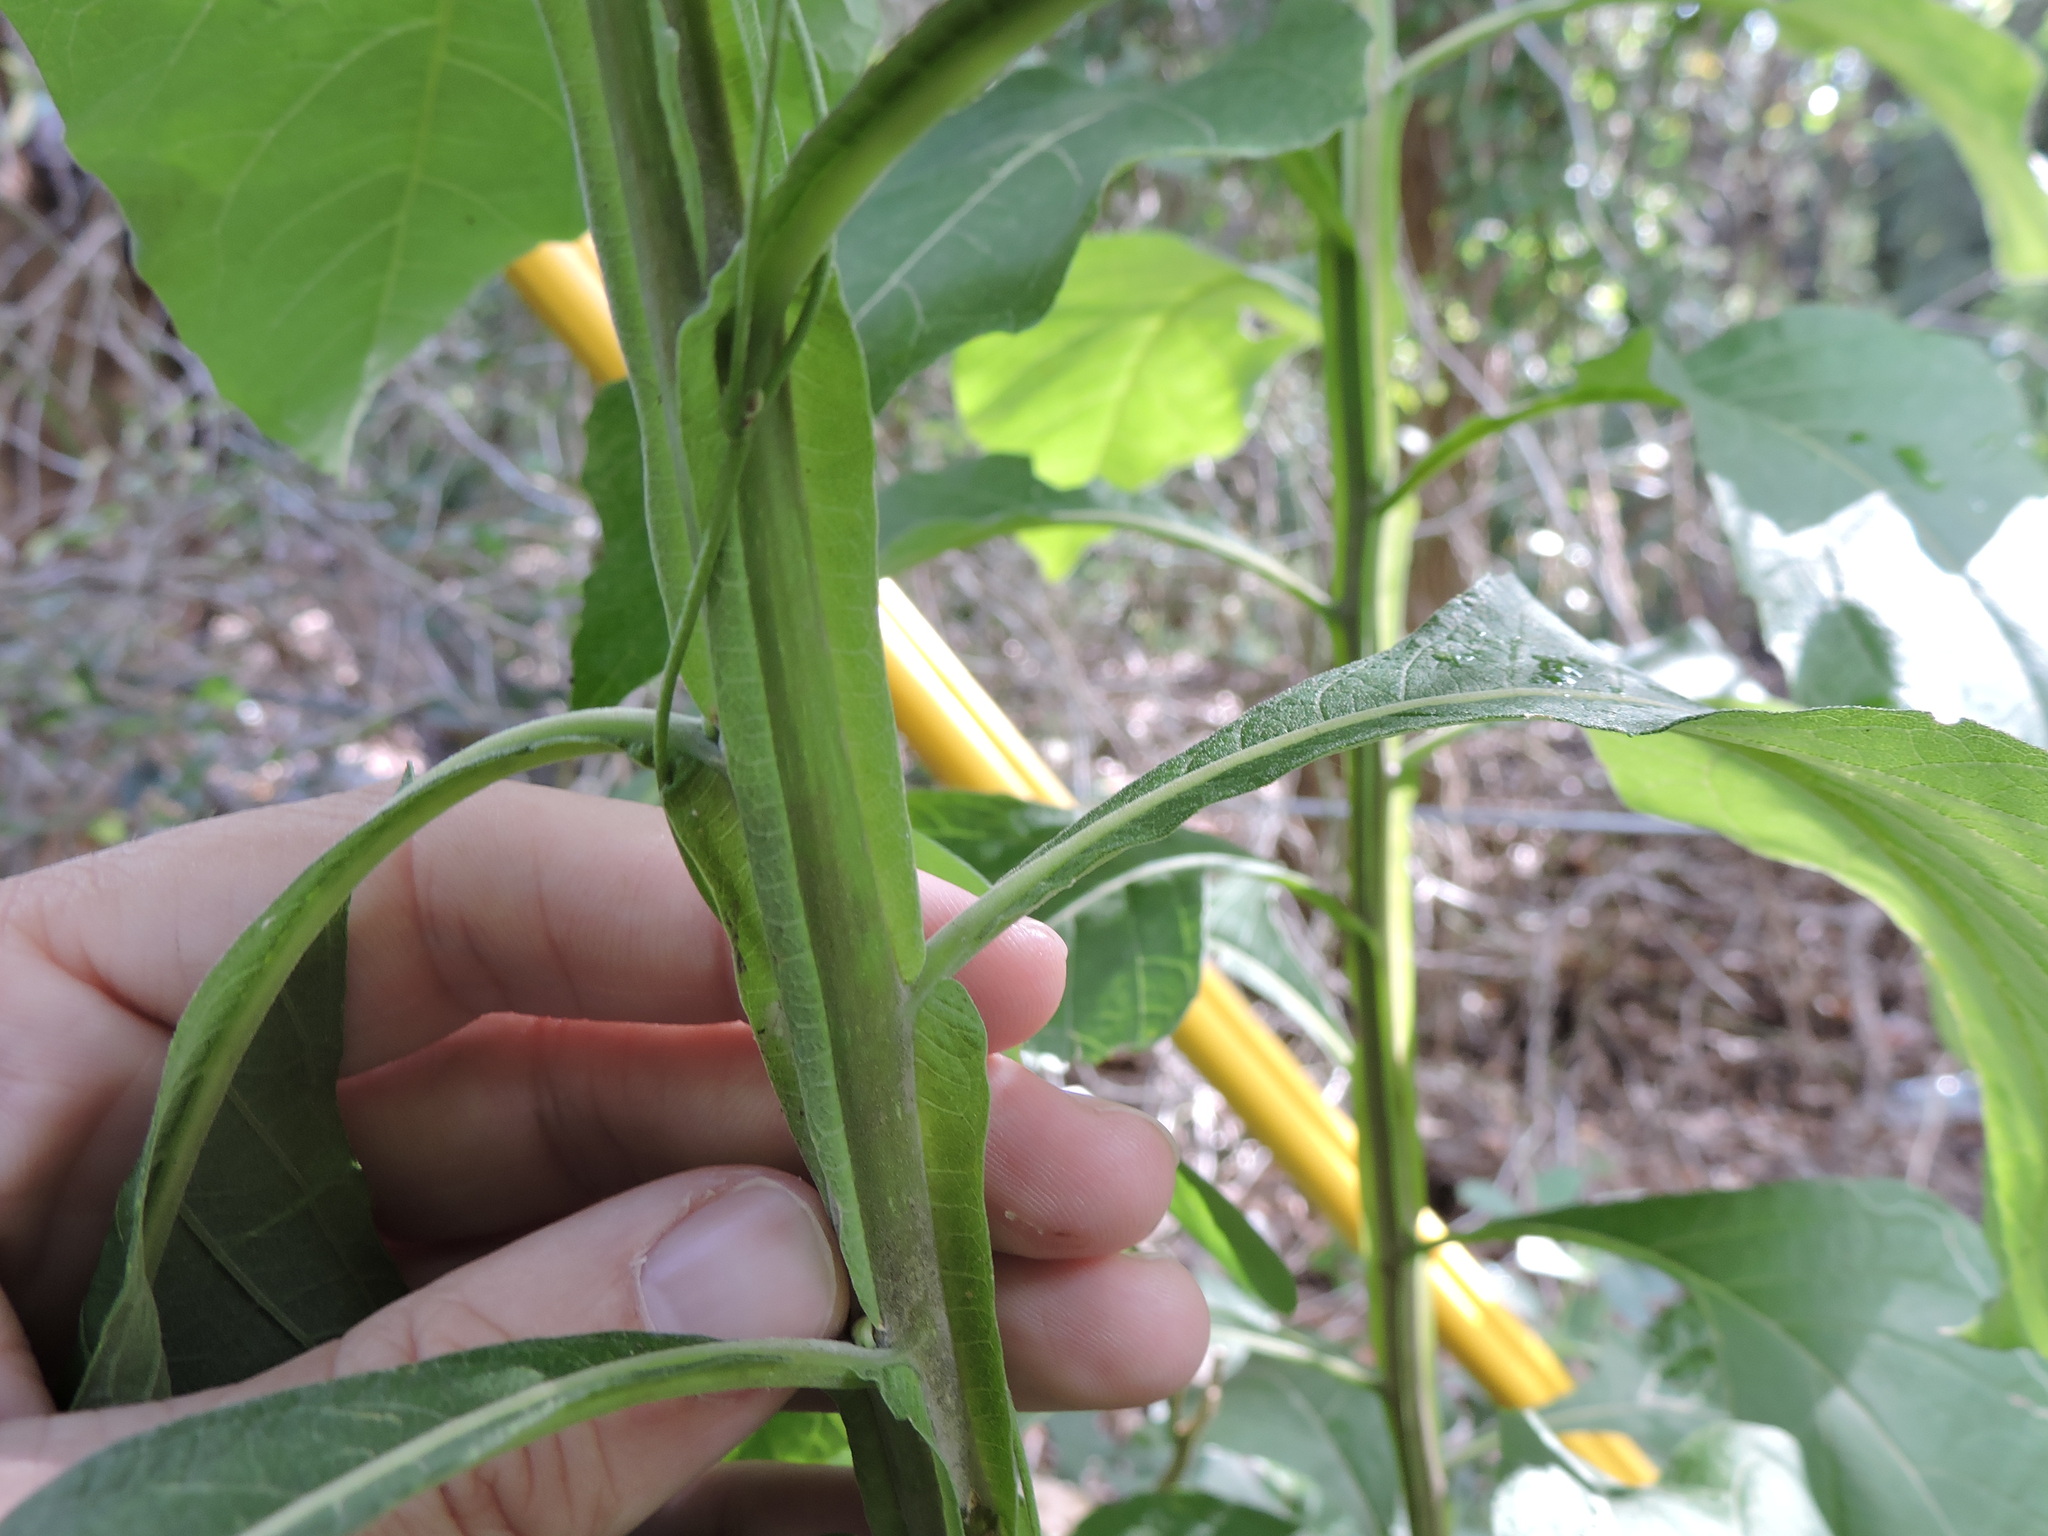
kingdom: Plantae
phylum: Tracheophyta
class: Magnoliopsida
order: Asterales
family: Asteraceae
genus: Verbesina
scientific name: Verbesina virginica
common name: Frostweed
